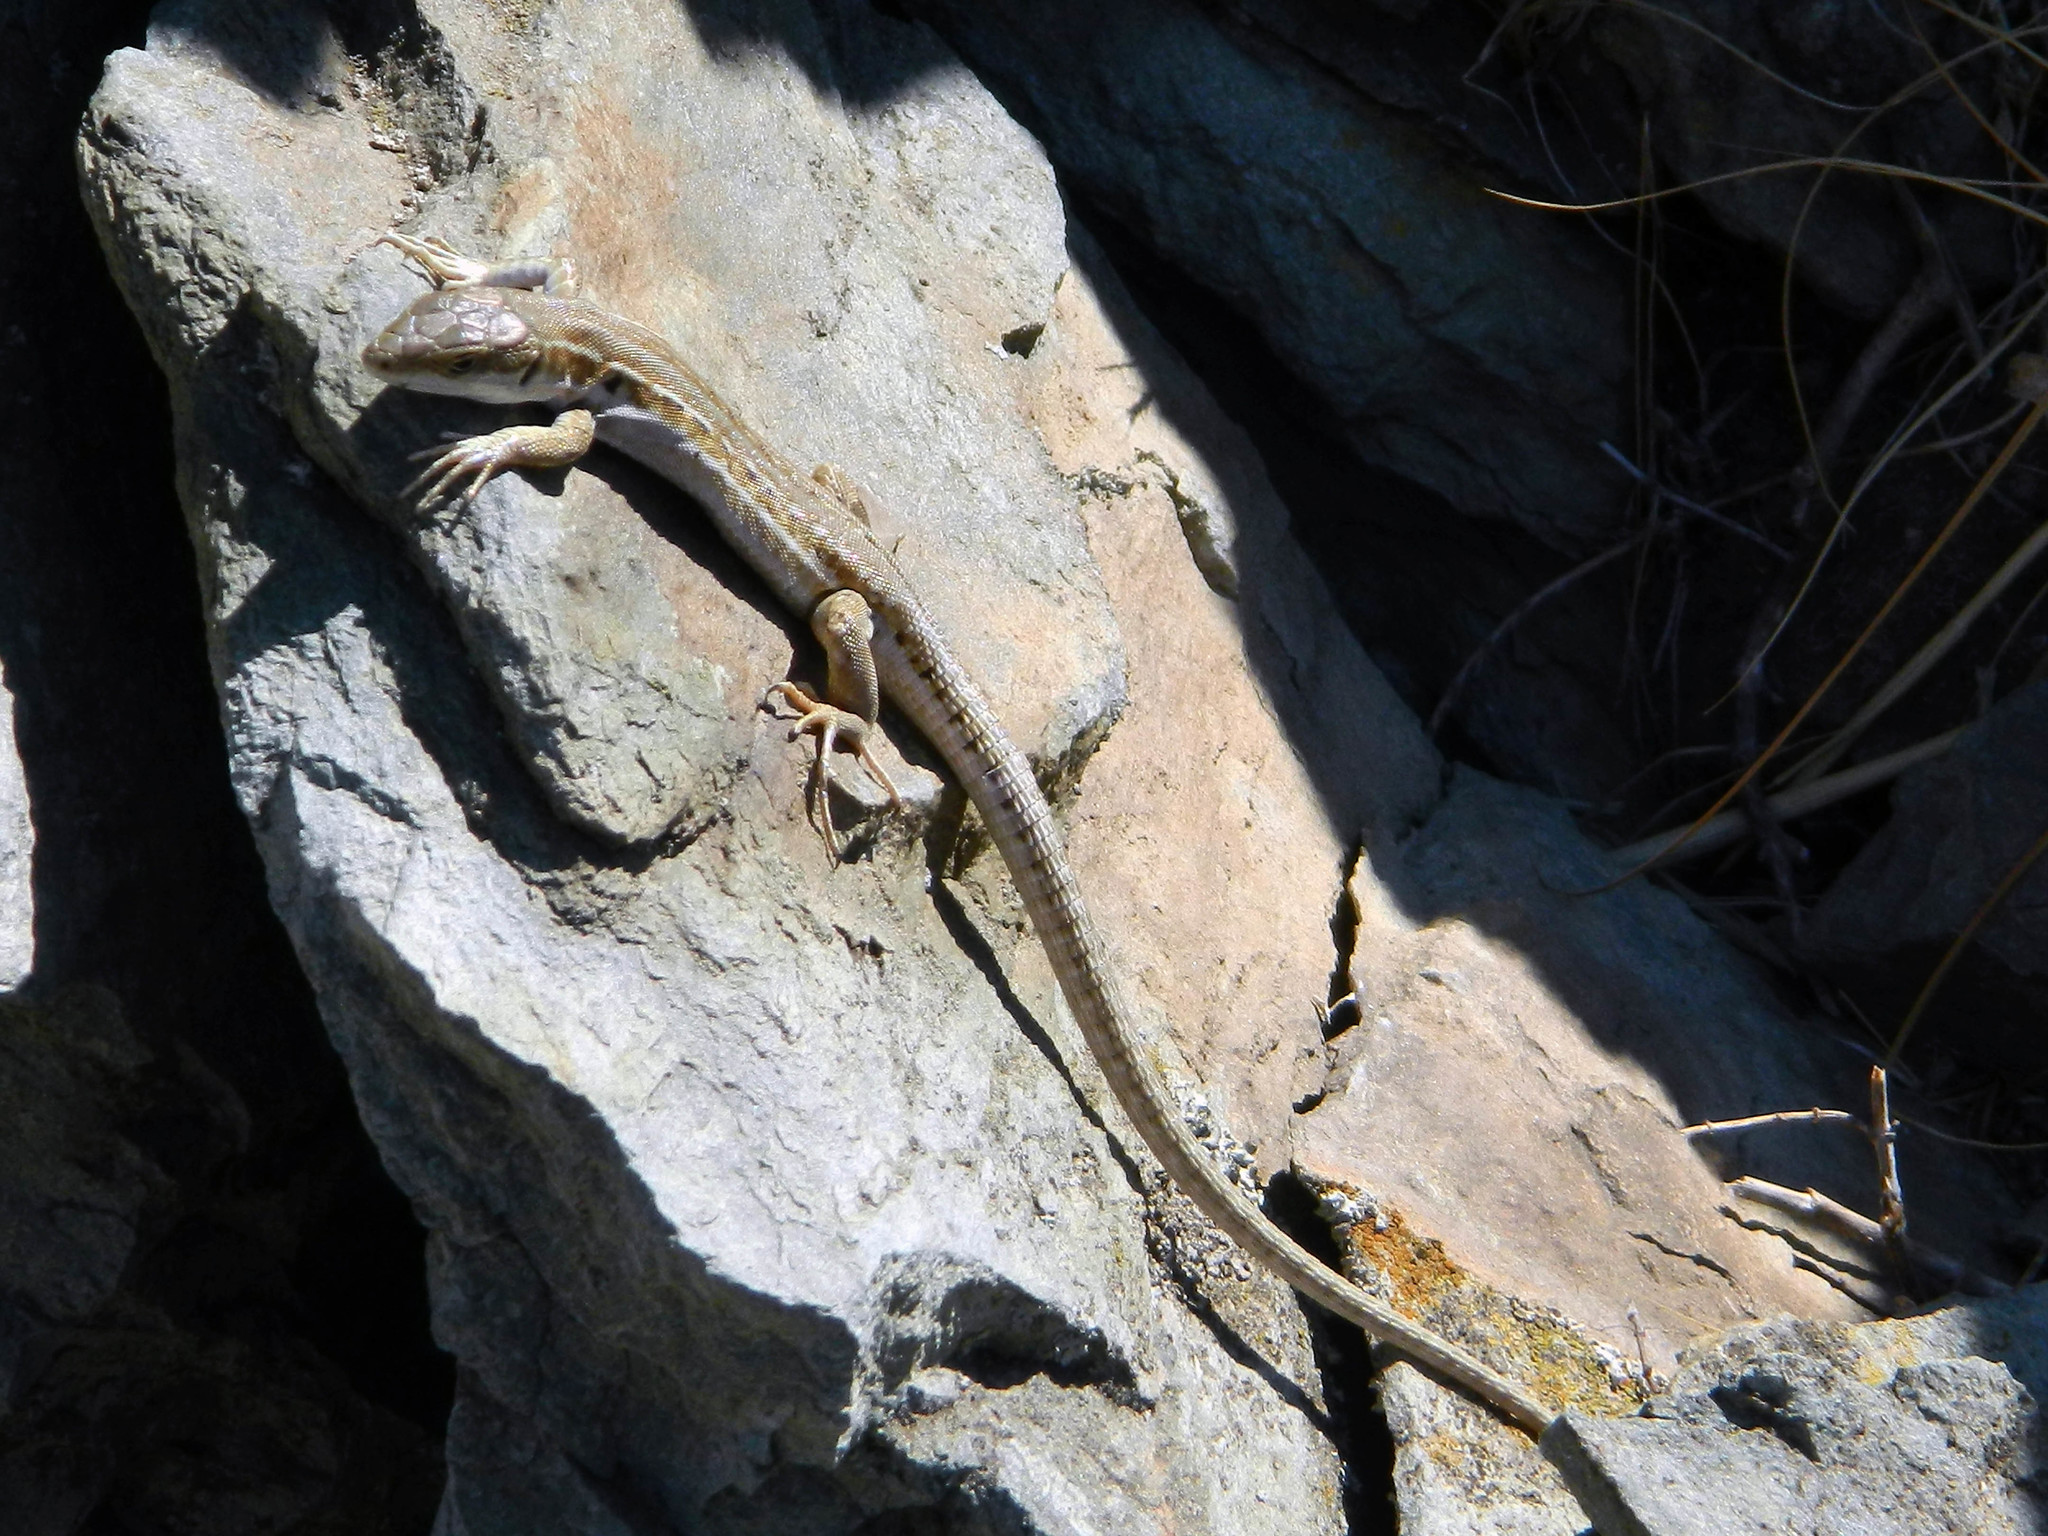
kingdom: Animalia
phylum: Chordata
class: Squamata
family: Lacertidae
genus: Podarcis
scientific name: Podarcis siculus
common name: Italian wall lizard
